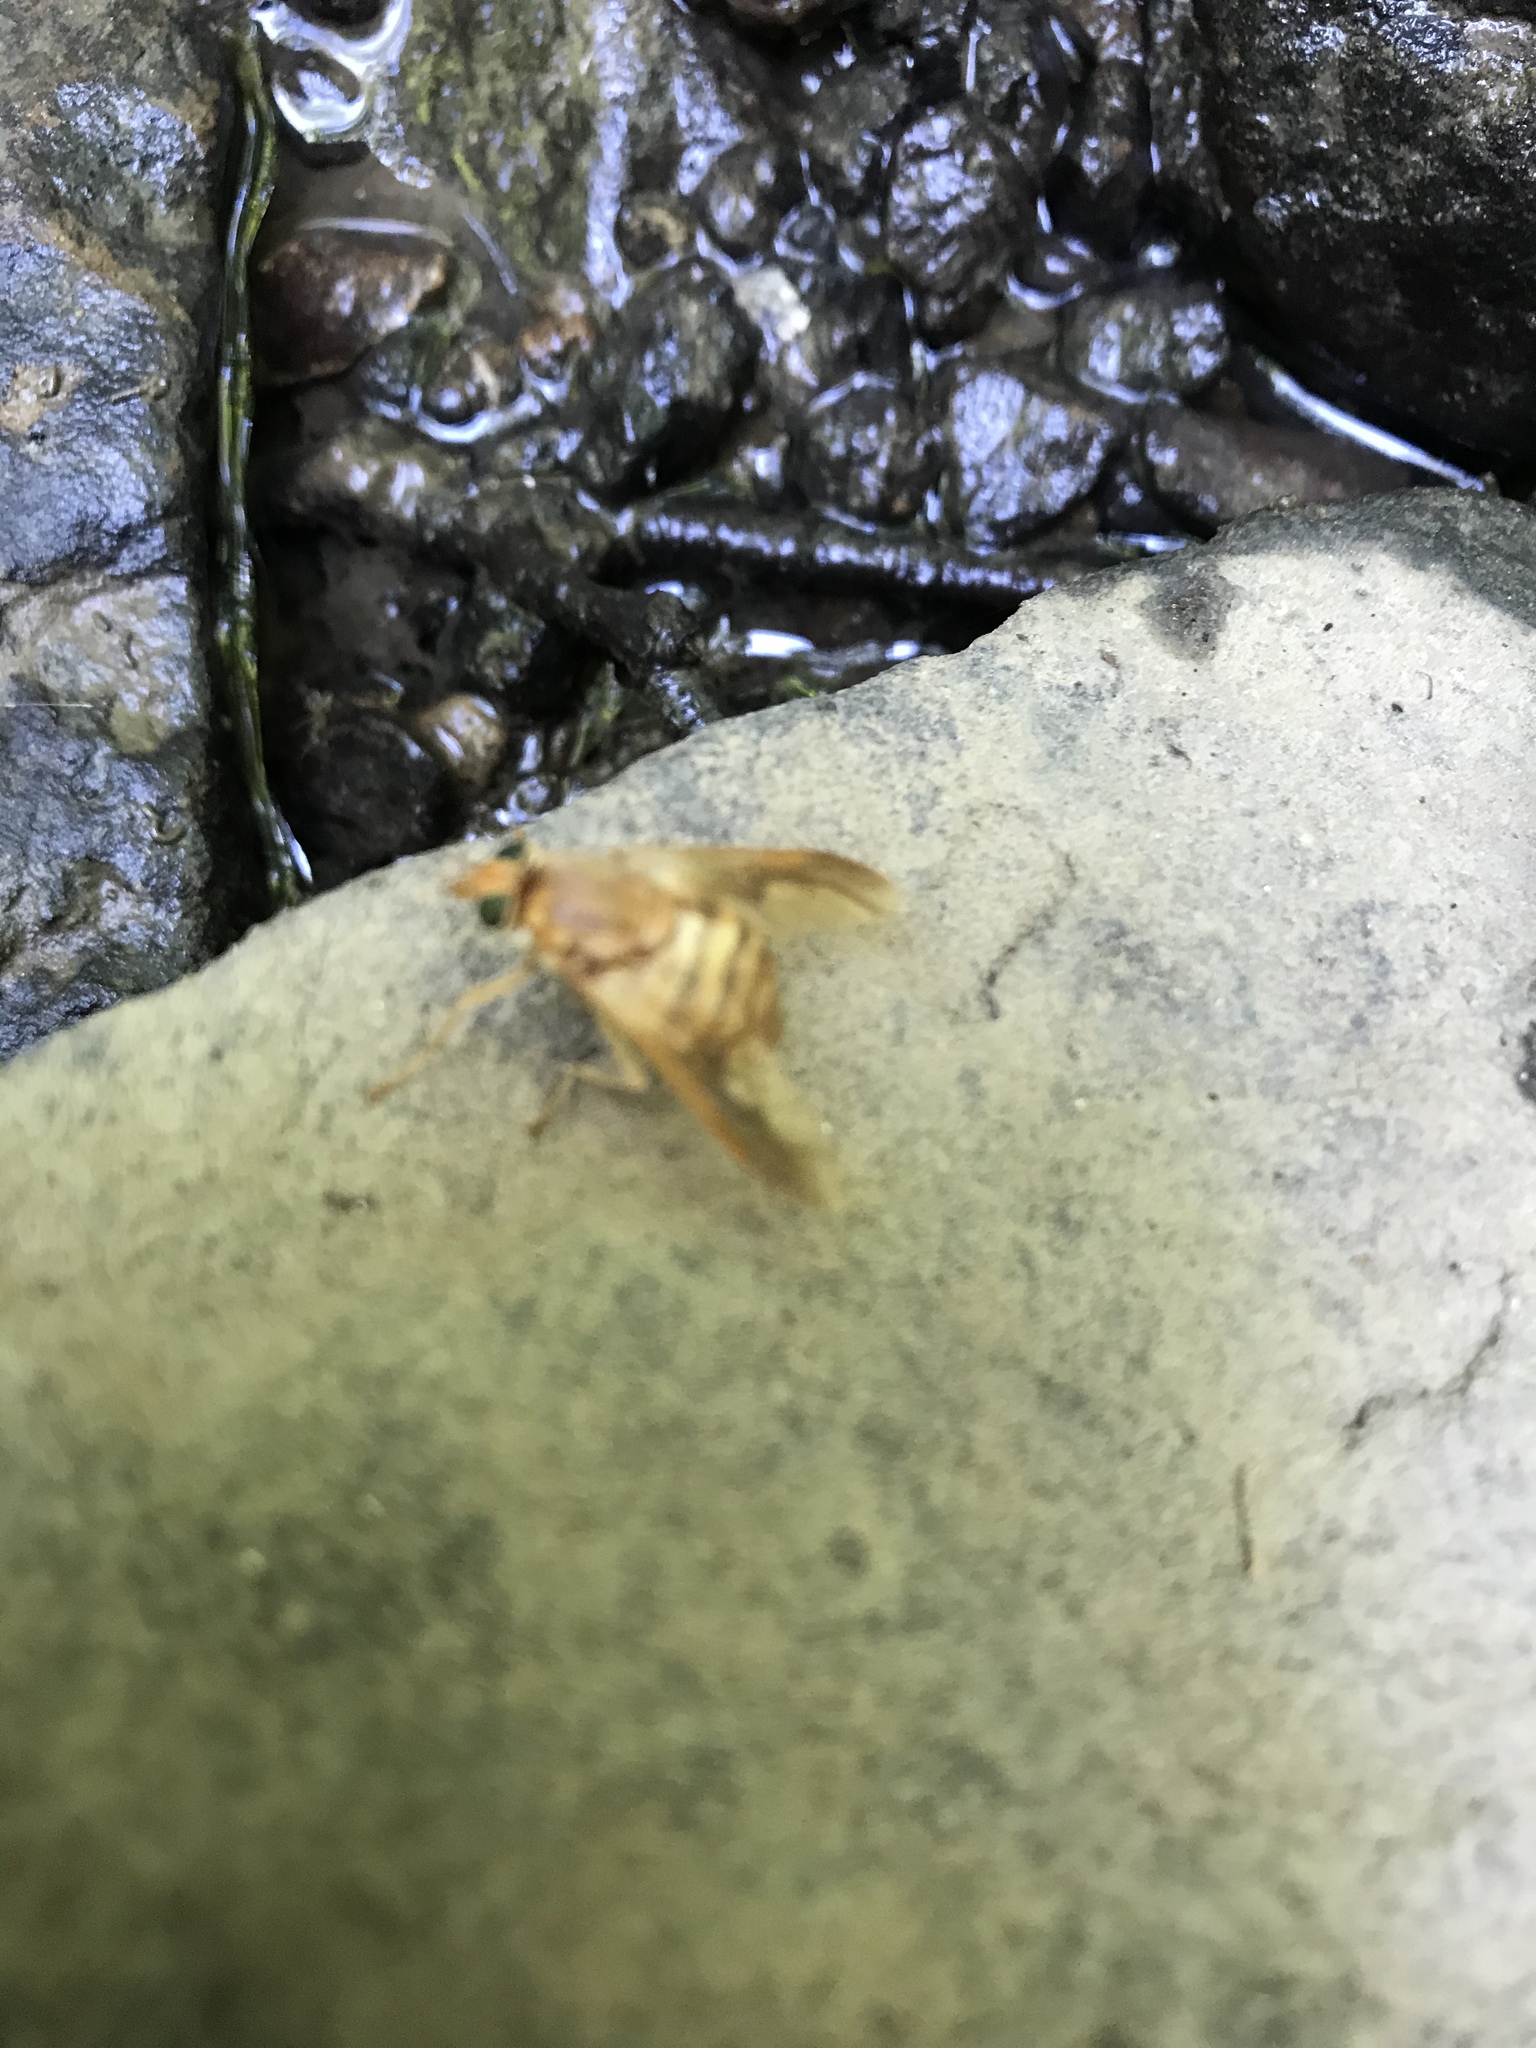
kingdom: Animalia
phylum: Arthropoda
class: Insecta
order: Diptera
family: Tabanidae
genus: Goniops
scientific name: Goniops chrysocoma
